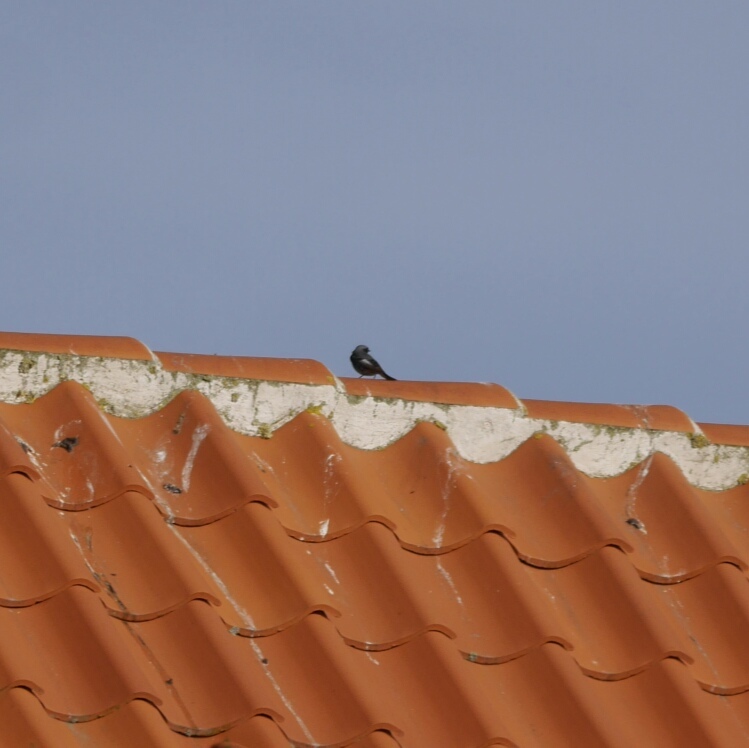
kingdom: Animalia
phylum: Chordata
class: Aves
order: Passeriformes
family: Muscicapidae
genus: Phoenicurus
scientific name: Phoenicurus ochruros
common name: Black redstart
